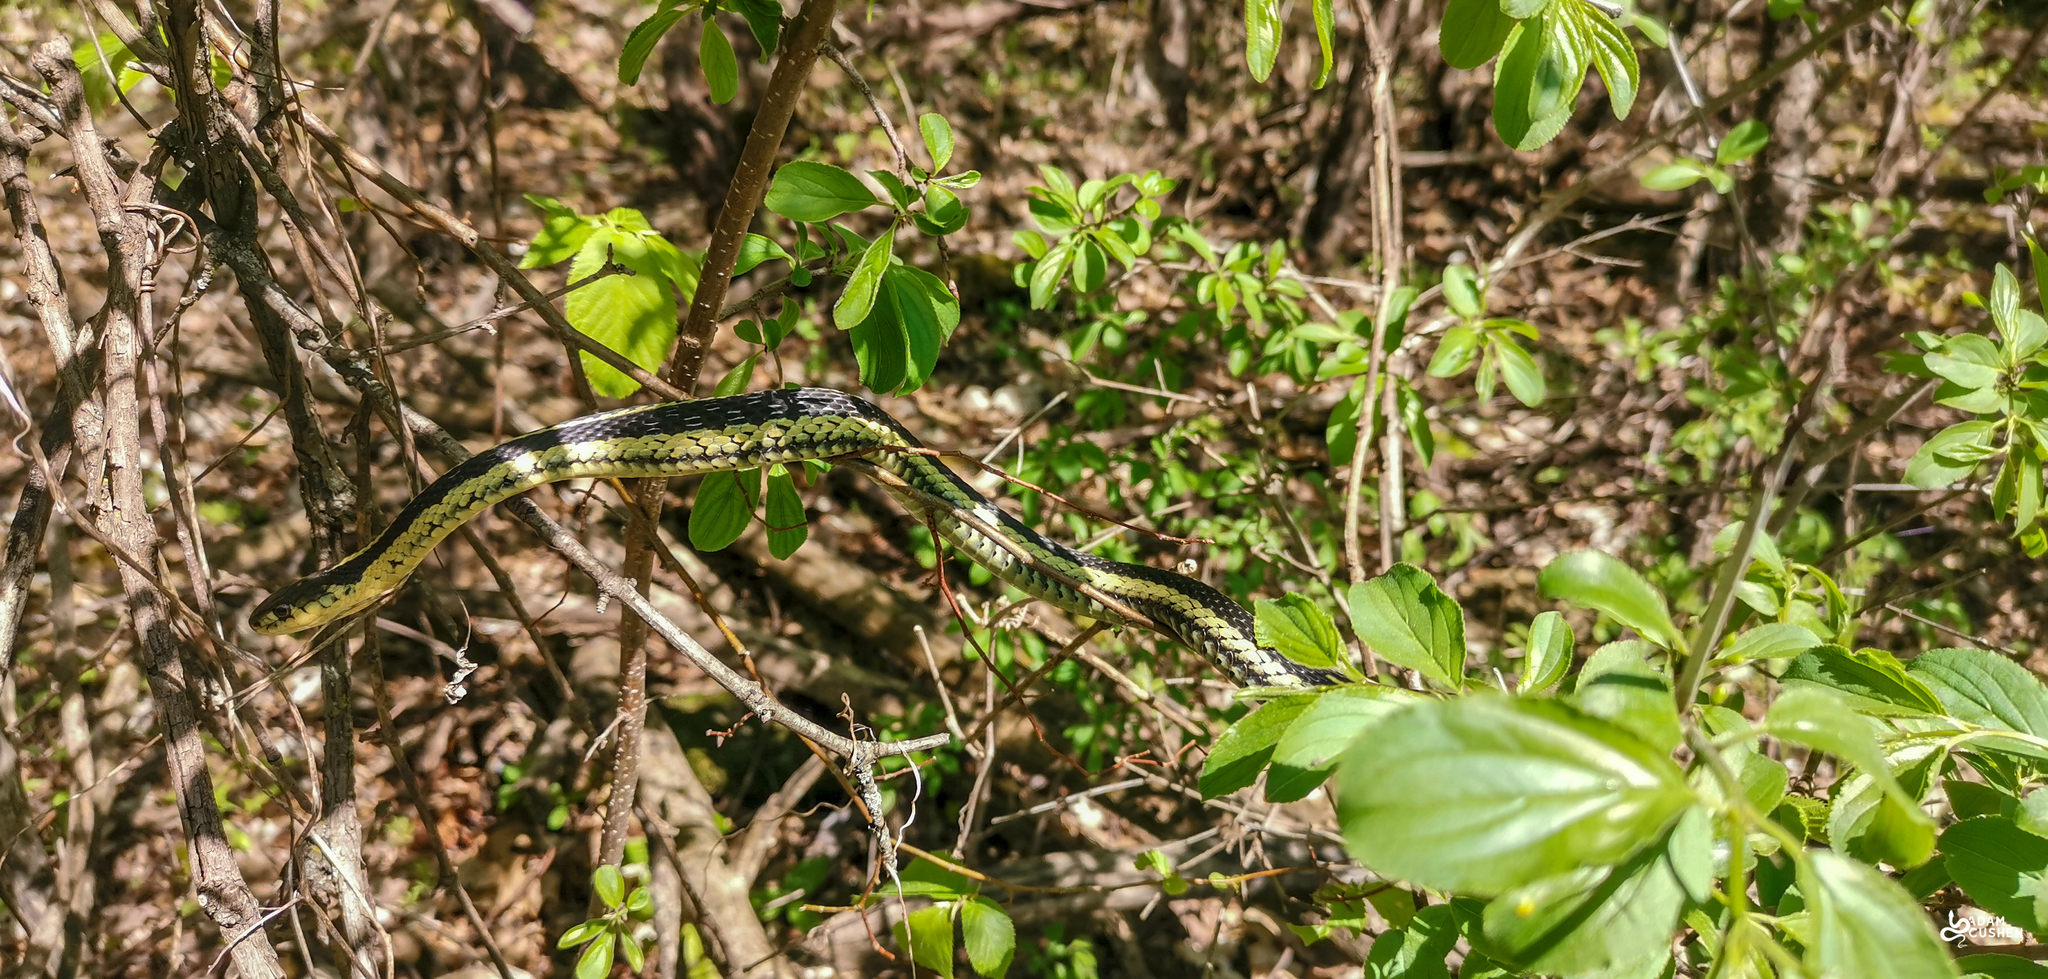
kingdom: Animalia
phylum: Chordata
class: Squamata
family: Colubridae
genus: Thamnophis
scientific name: Thamnophis sirtalis
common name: Common garter snake
